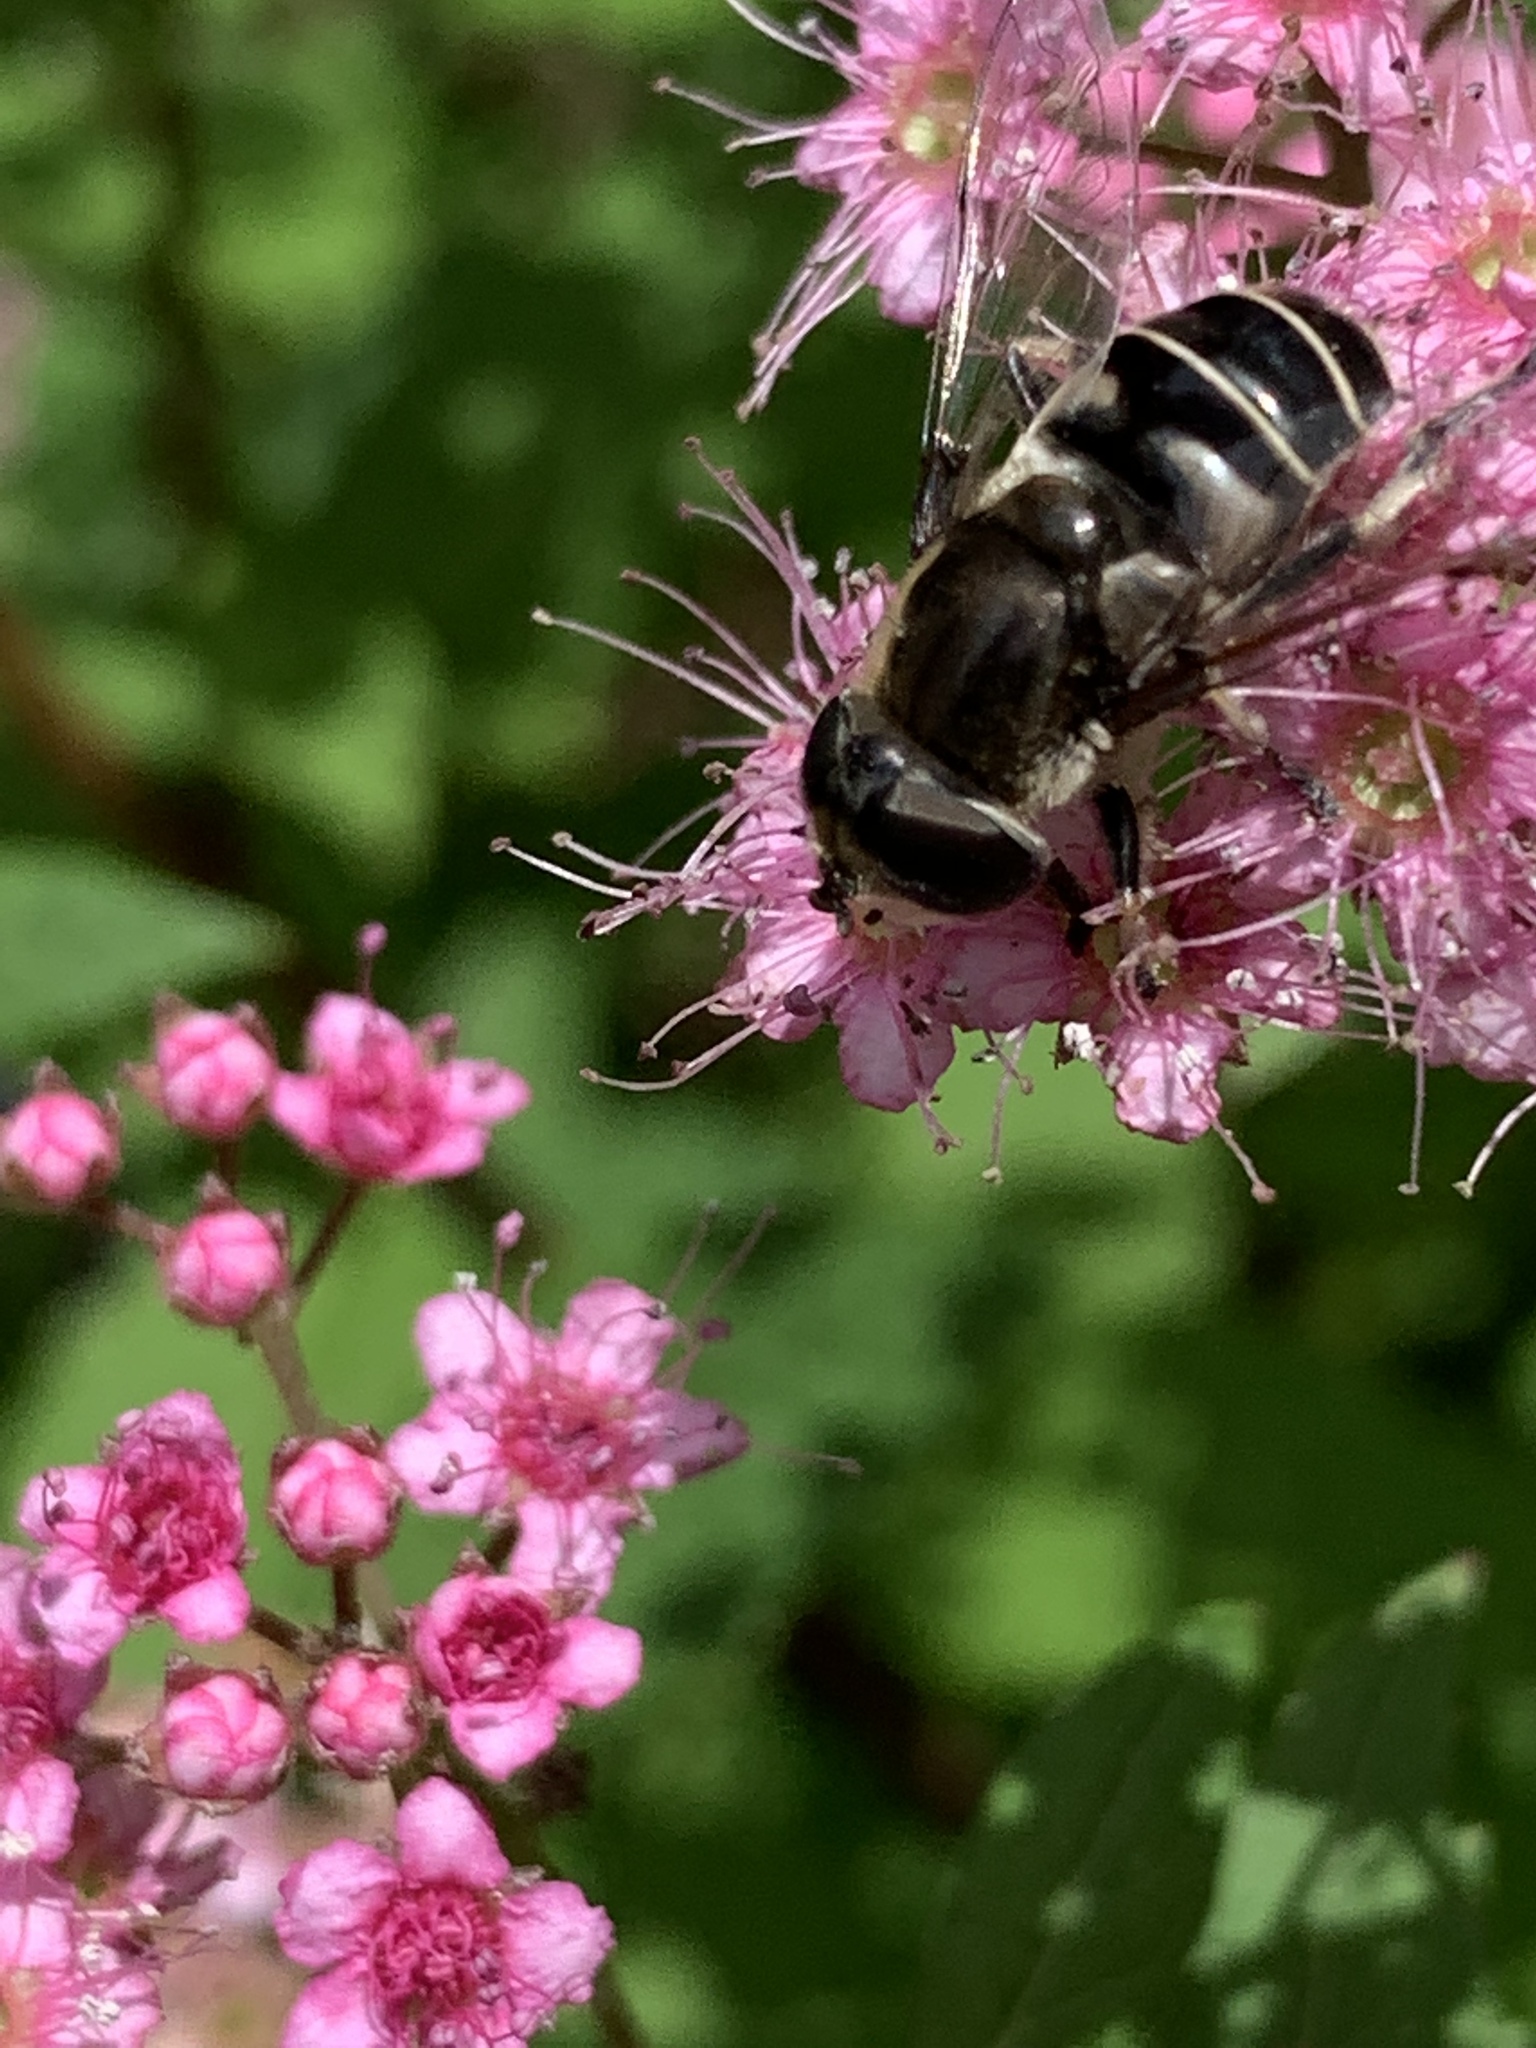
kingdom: Animalia
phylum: Arthropoda
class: Insecta
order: Diptera
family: Syrphidae
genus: Eristalis
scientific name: Eristalis dimidiata
